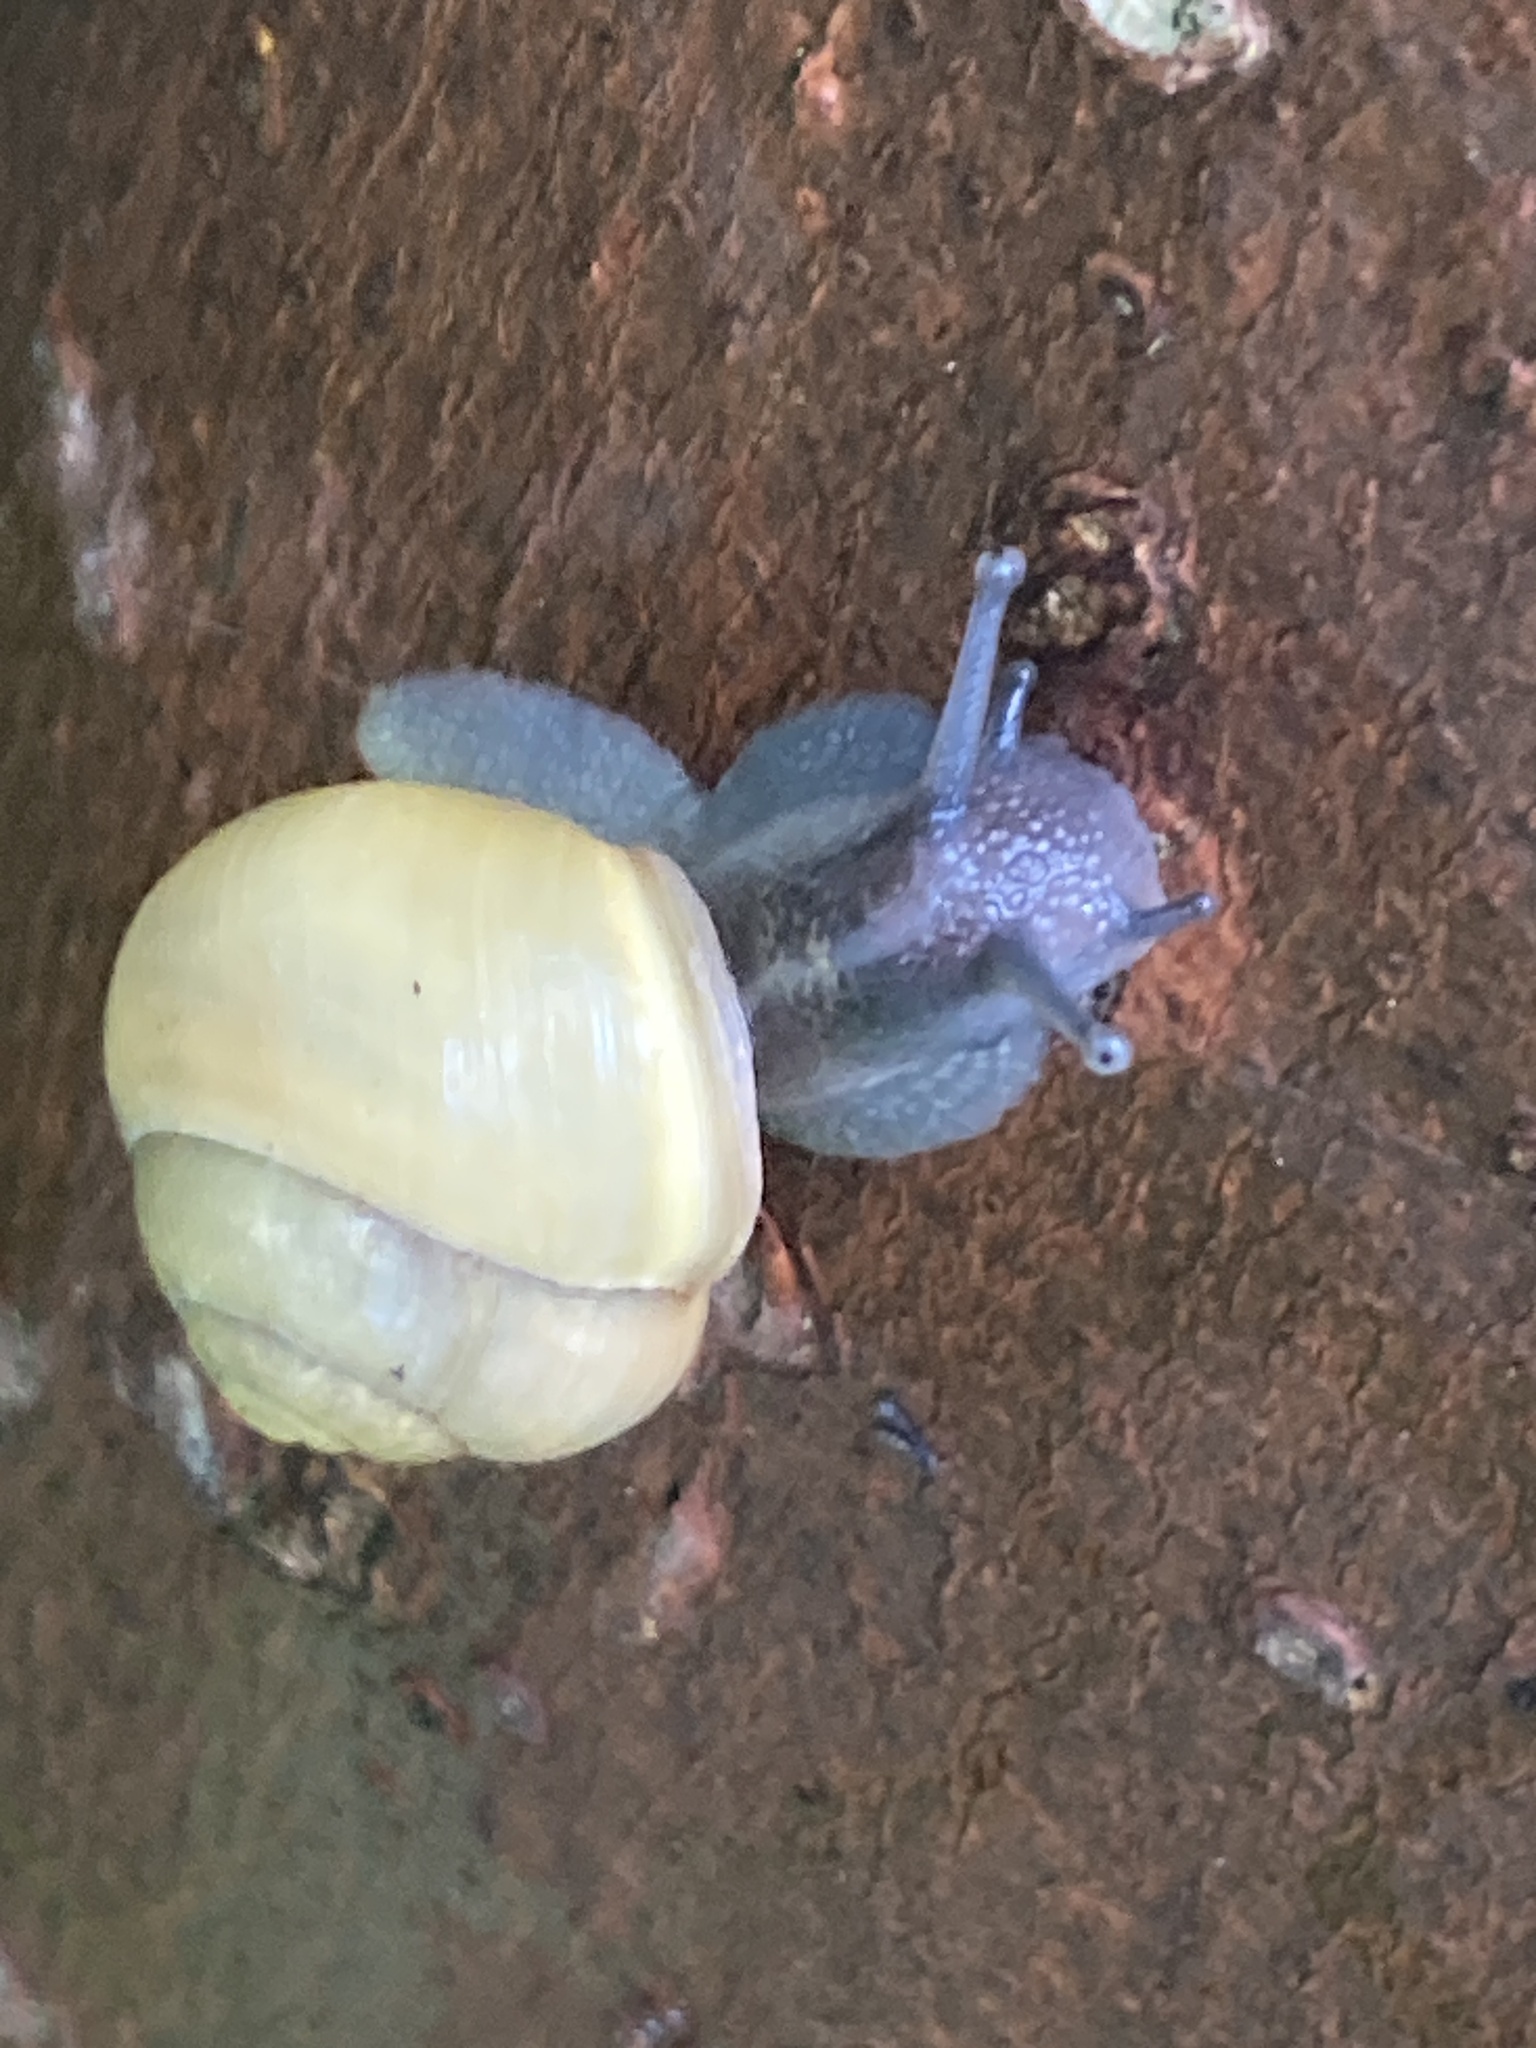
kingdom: Animalia
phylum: Mollusca
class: Gastropoda
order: Stylommatophora
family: Helicidae
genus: Cepaea
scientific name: Cepaea hortensis
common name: White-lip gardensnail
